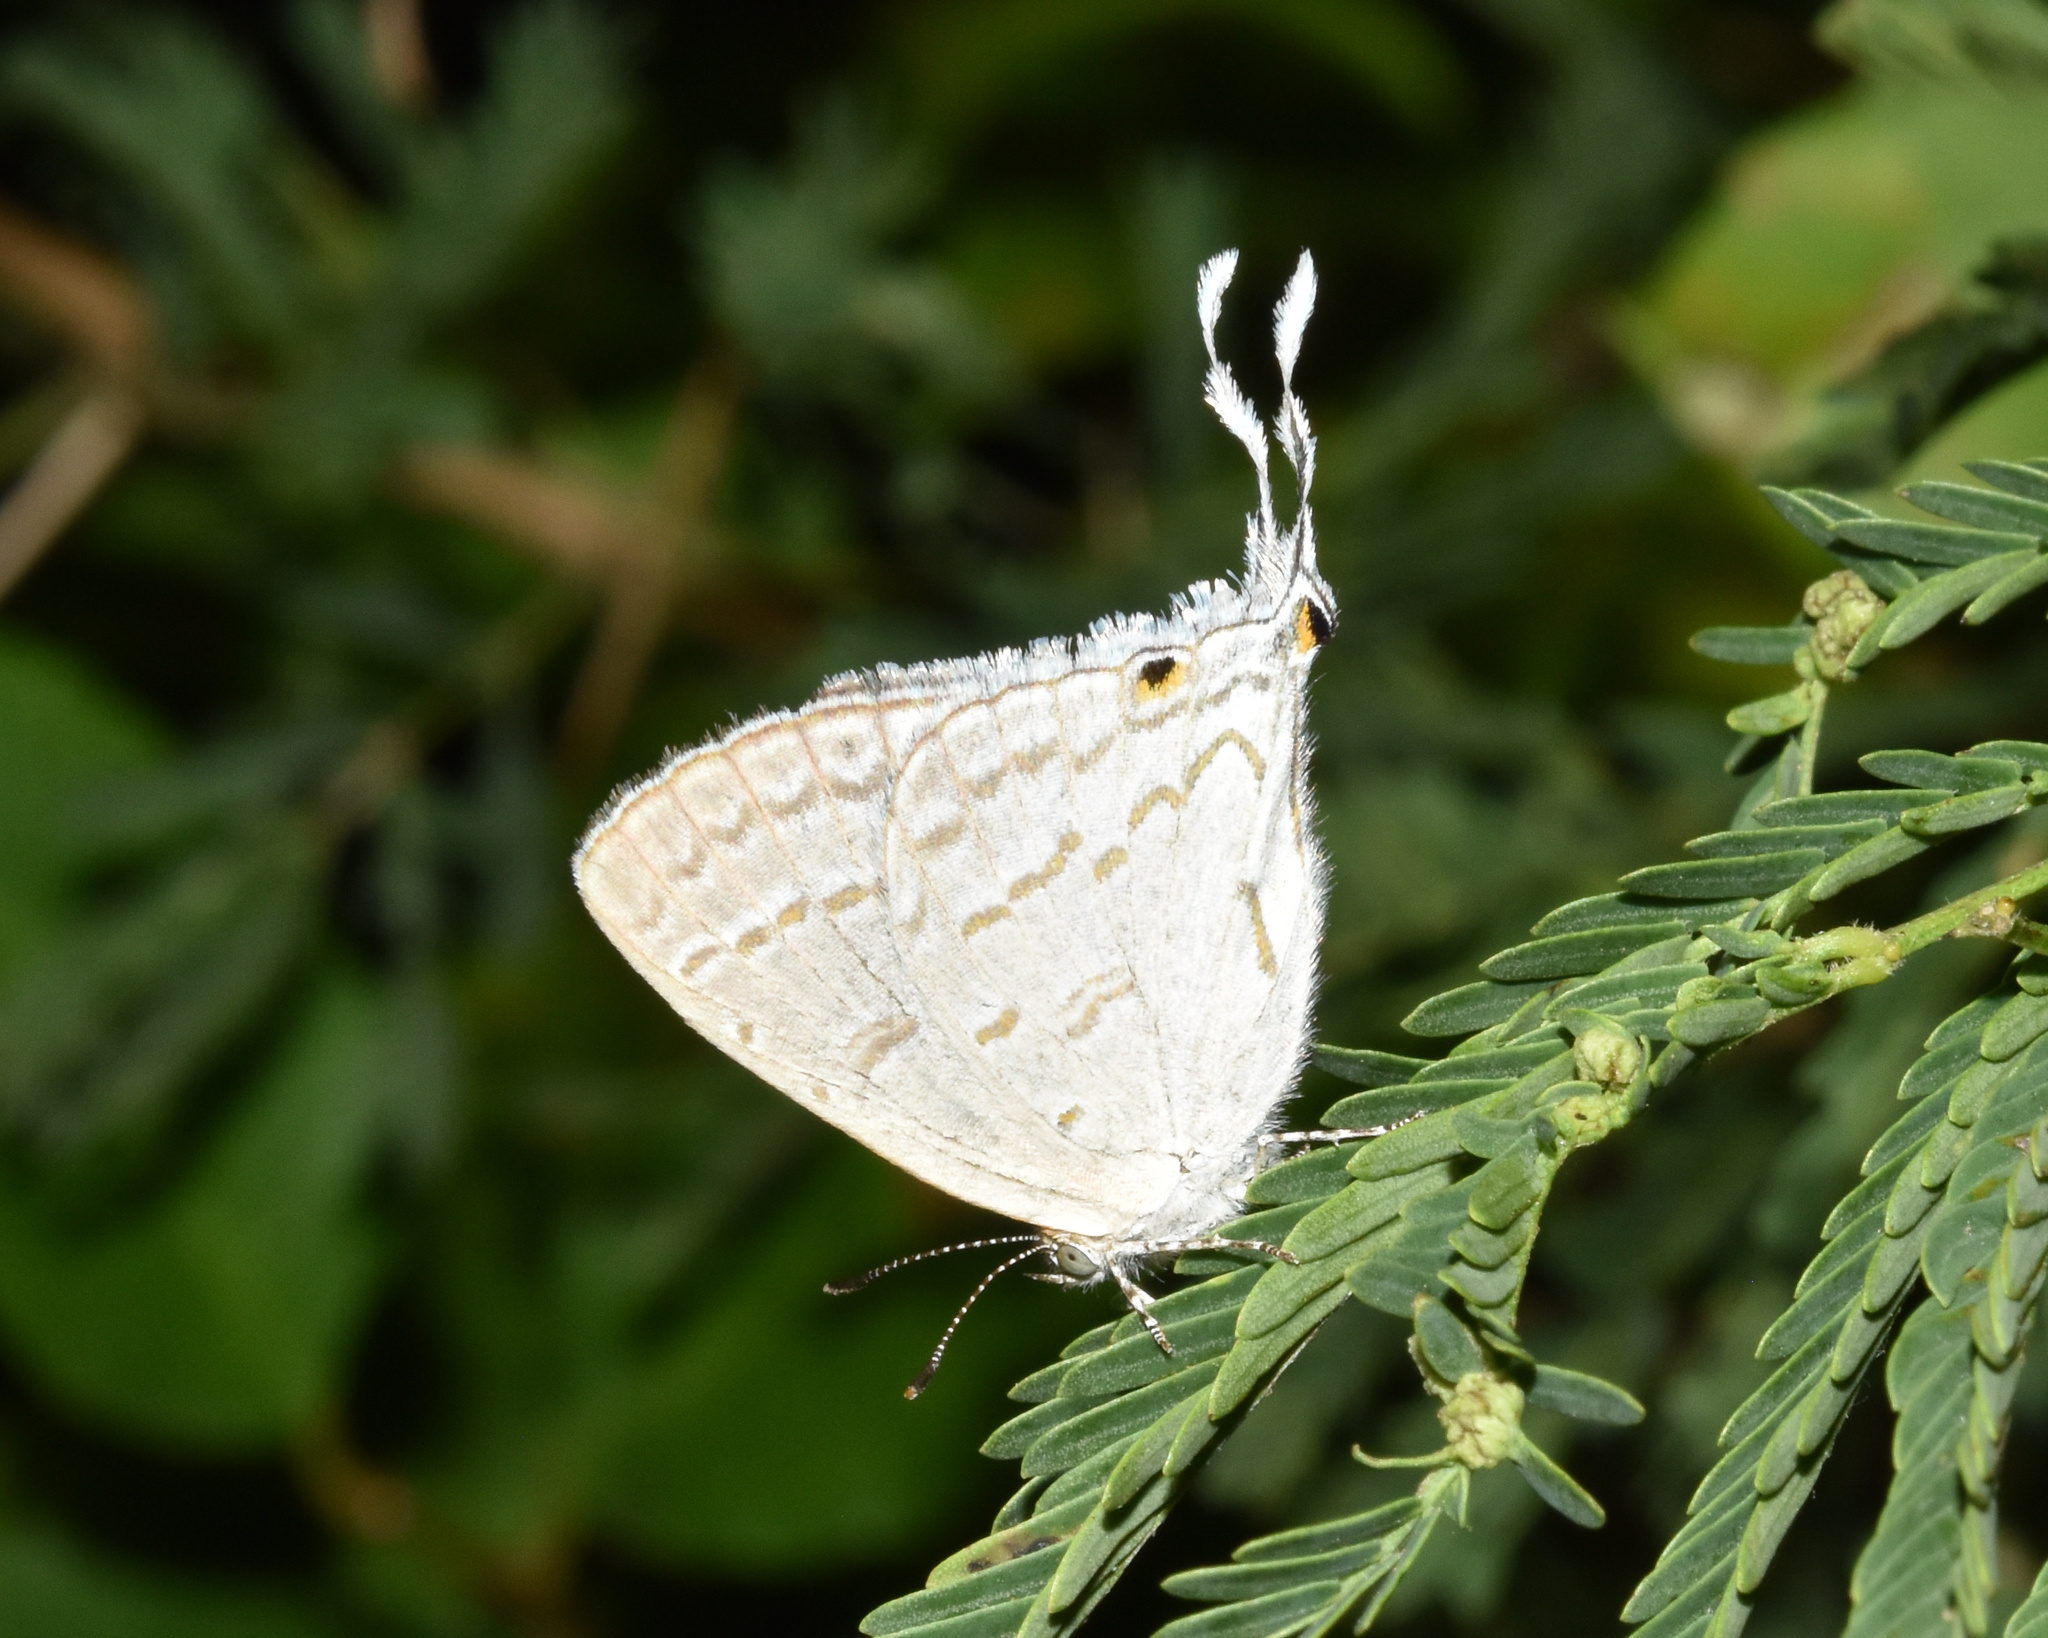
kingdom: Animalia
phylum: Arthropoda
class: Insecta
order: Lepidoptera
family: Lycaenidae
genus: Leptomyrina
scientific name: Leptomyrina hirundo
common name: Tailed black-eye
